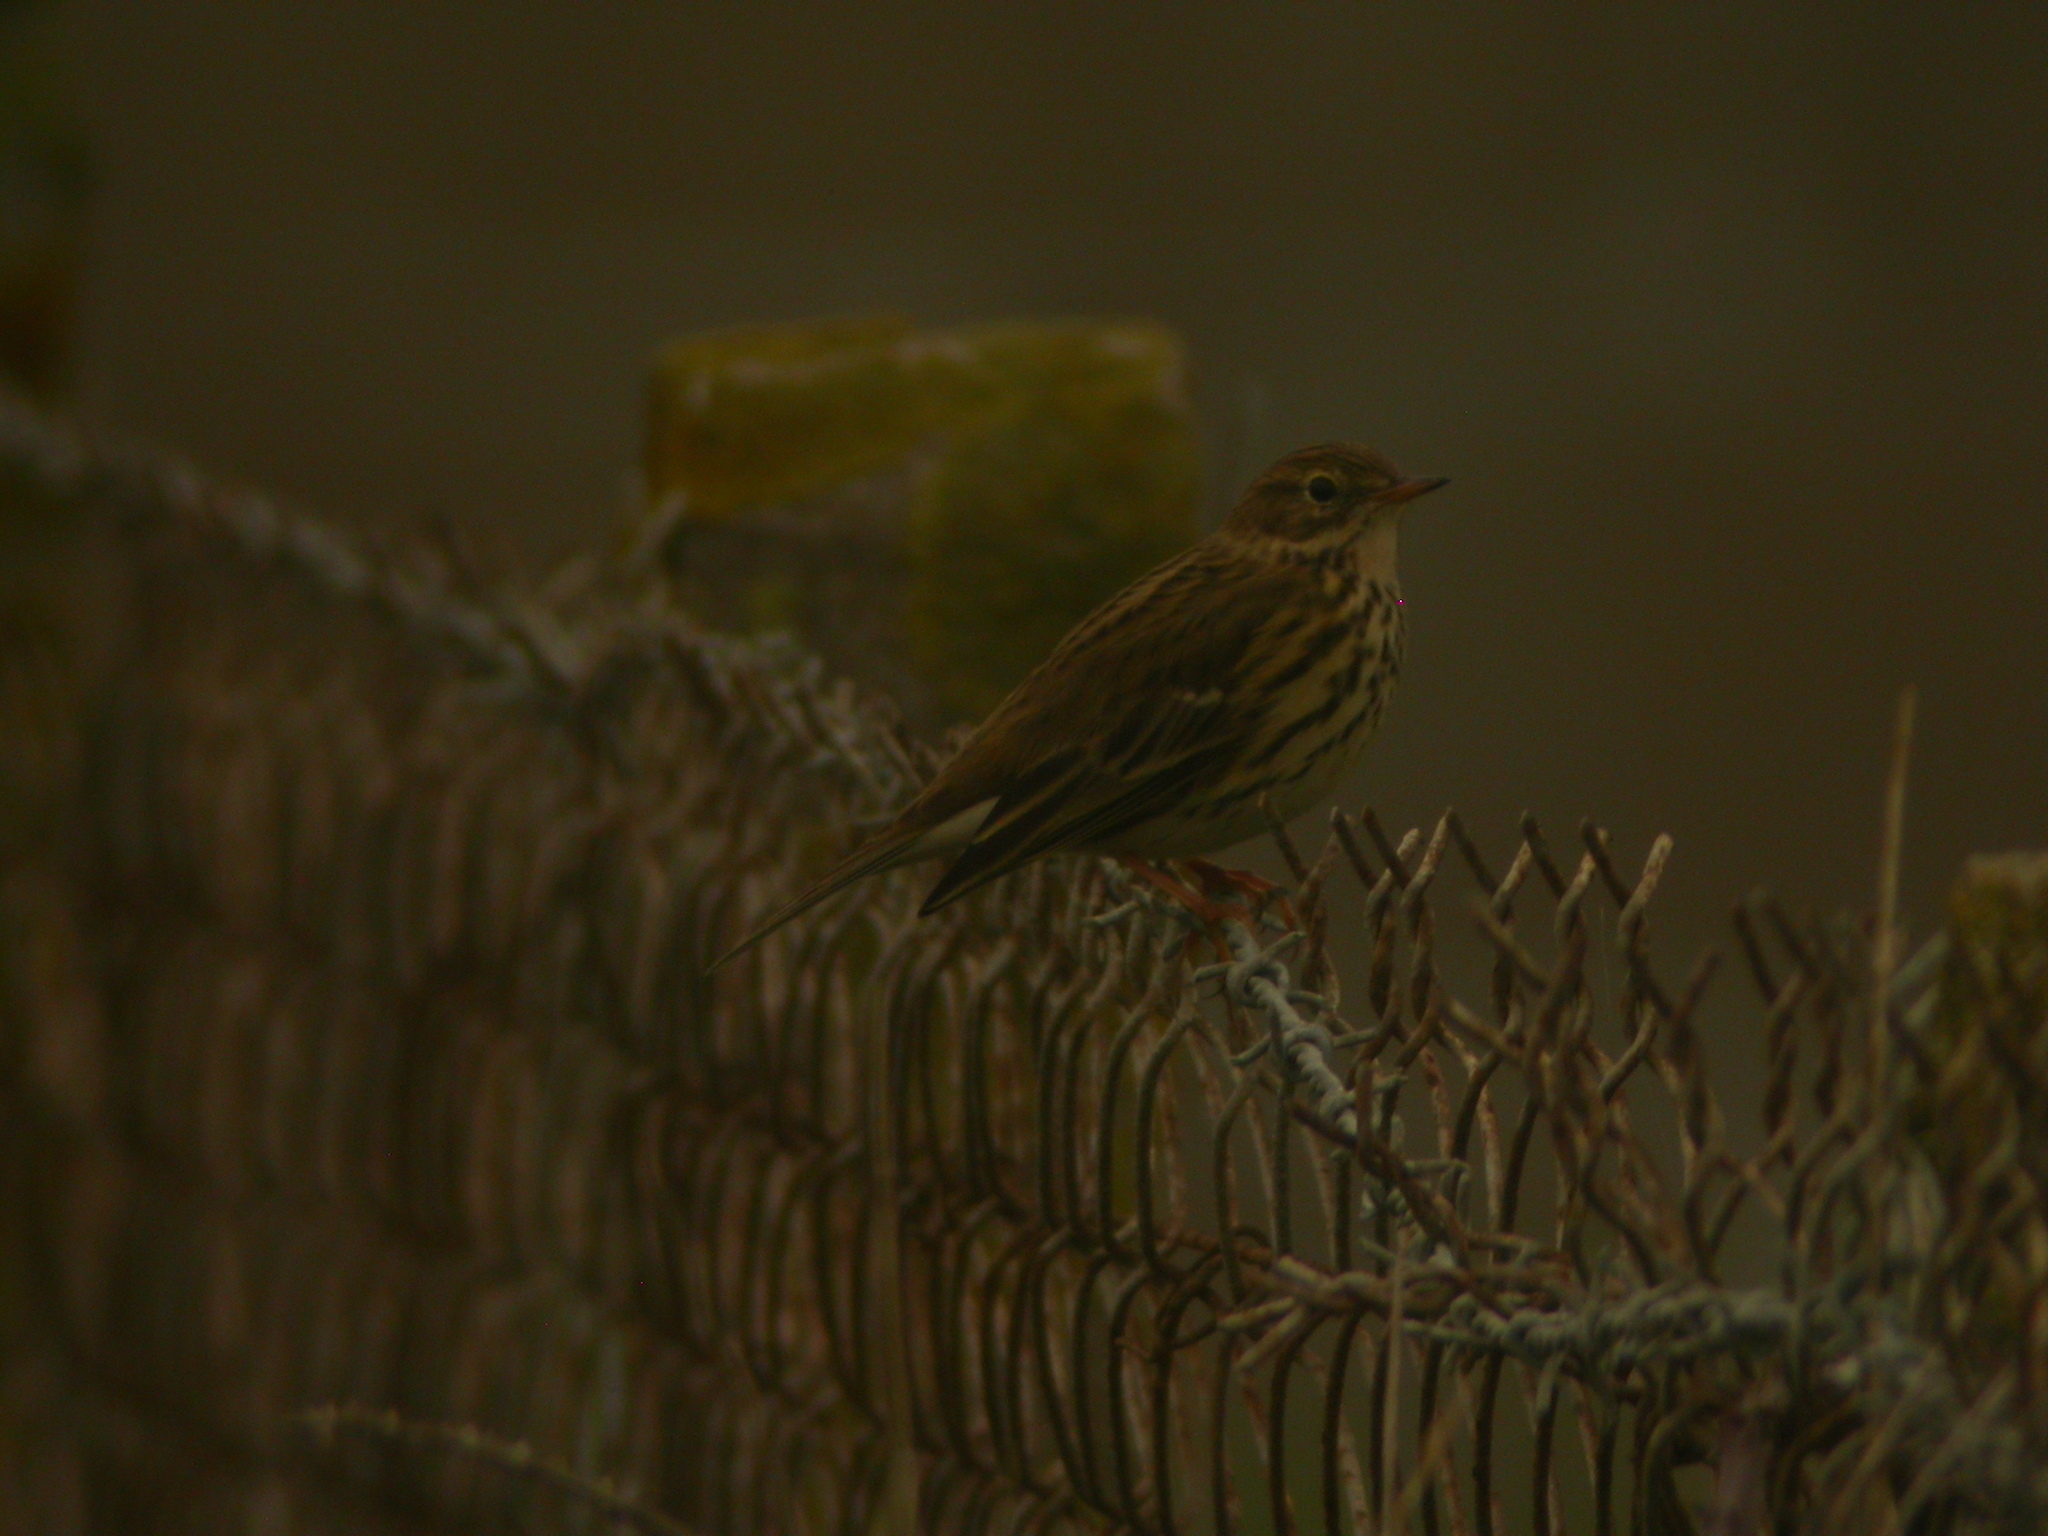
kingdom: Animalia
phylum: Chordata
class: Aves
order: Passeriformes
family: Motacillidae
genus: Anthus
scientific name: Anthus pratensis
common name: Meadow pipit
